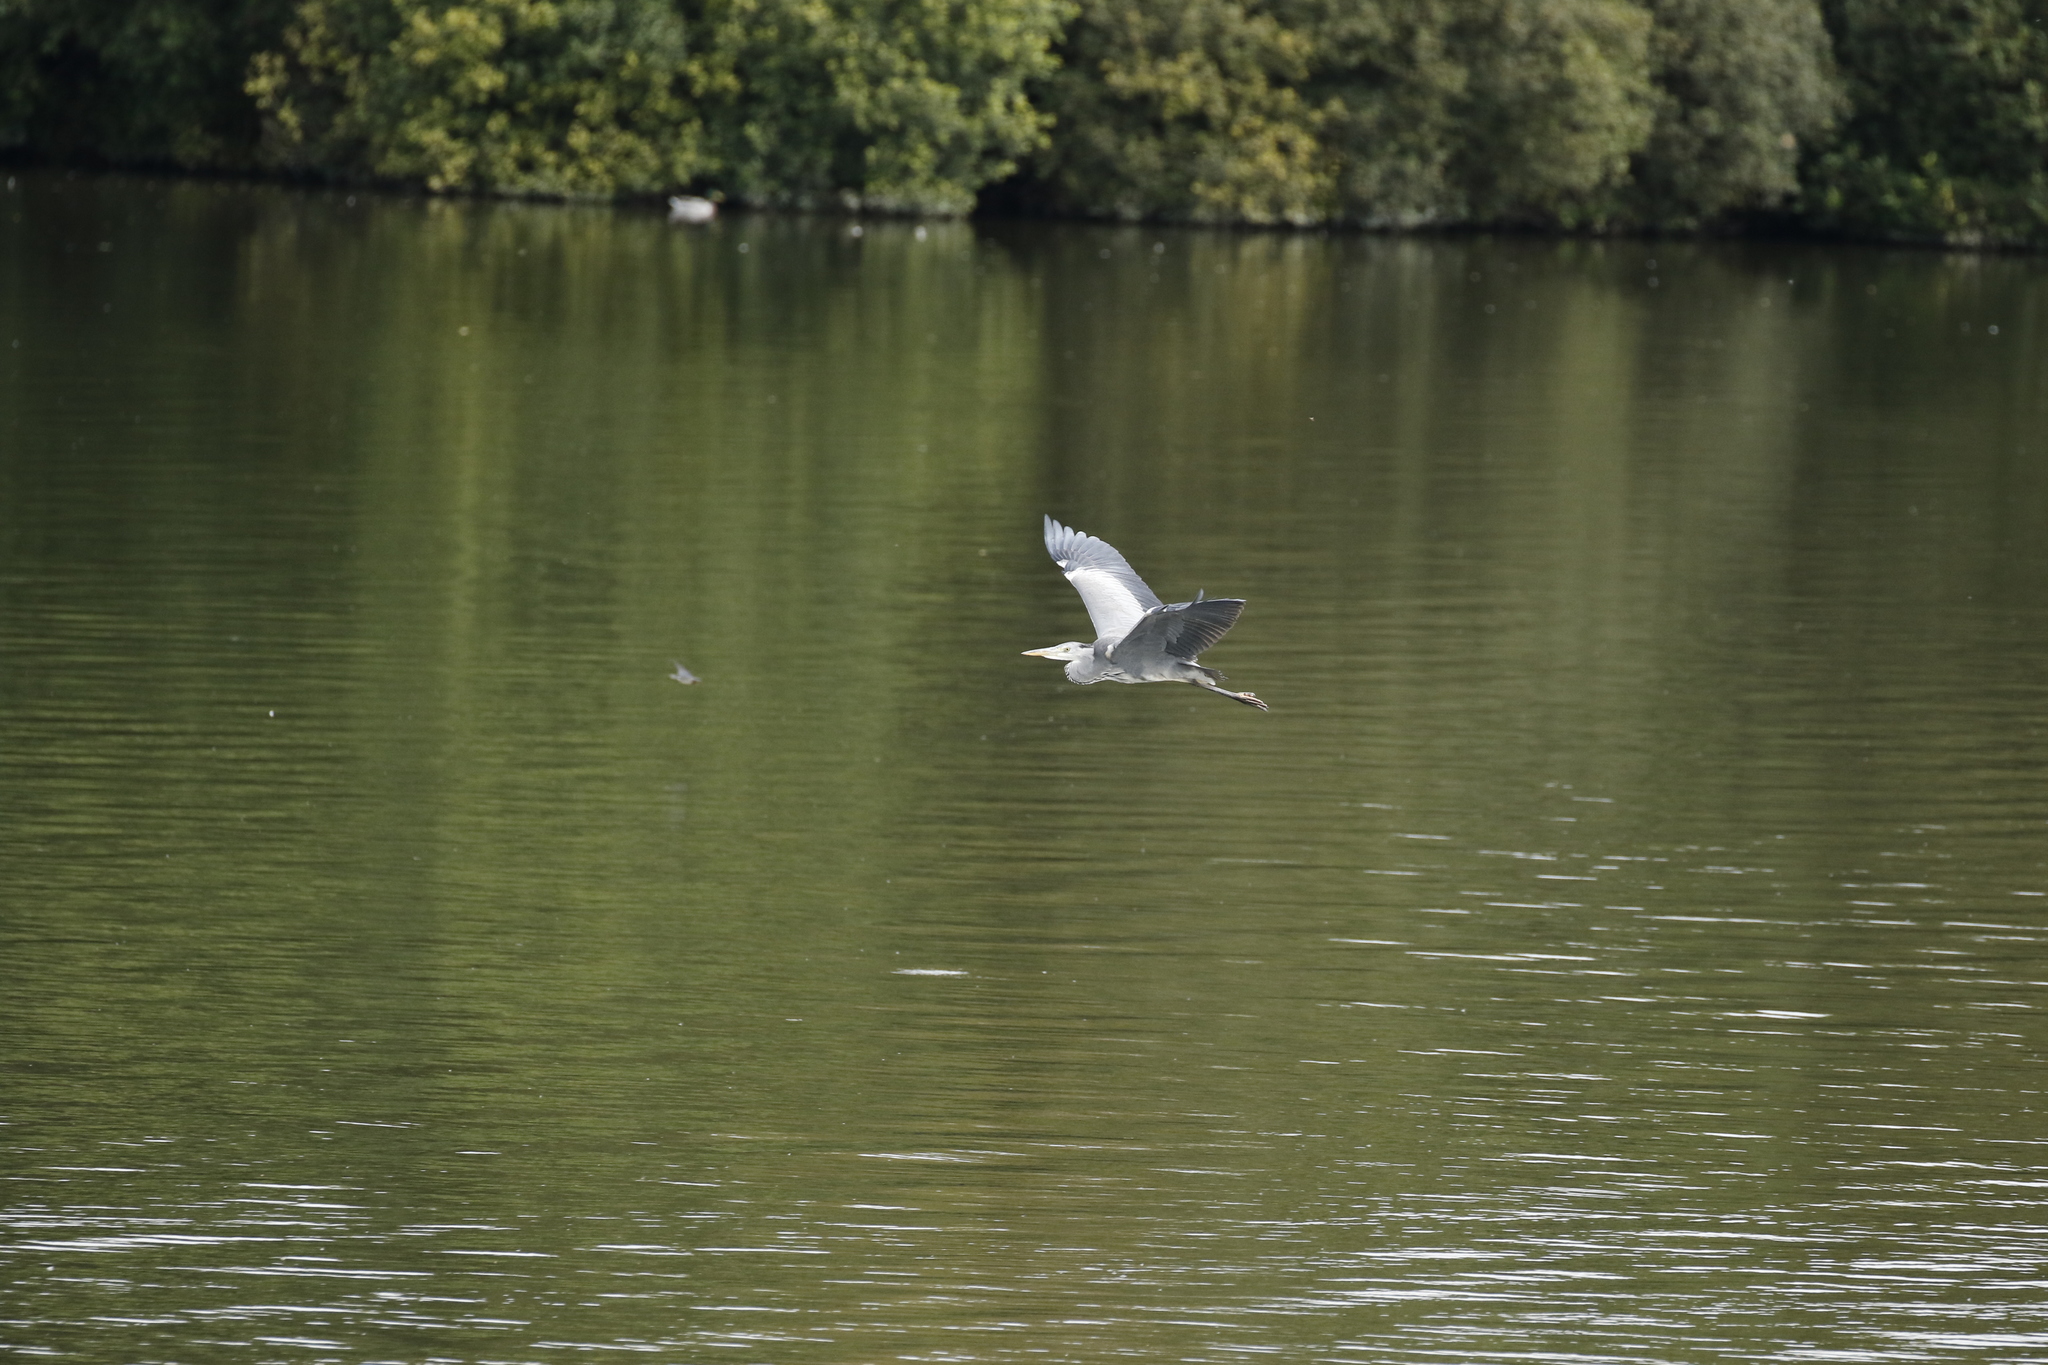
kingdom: Animalia
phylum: Chordata
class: Aves
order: Pelecaniformes
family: Ardeidae
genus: Ardea
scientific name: Ardea cinerea
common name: Grey heron
